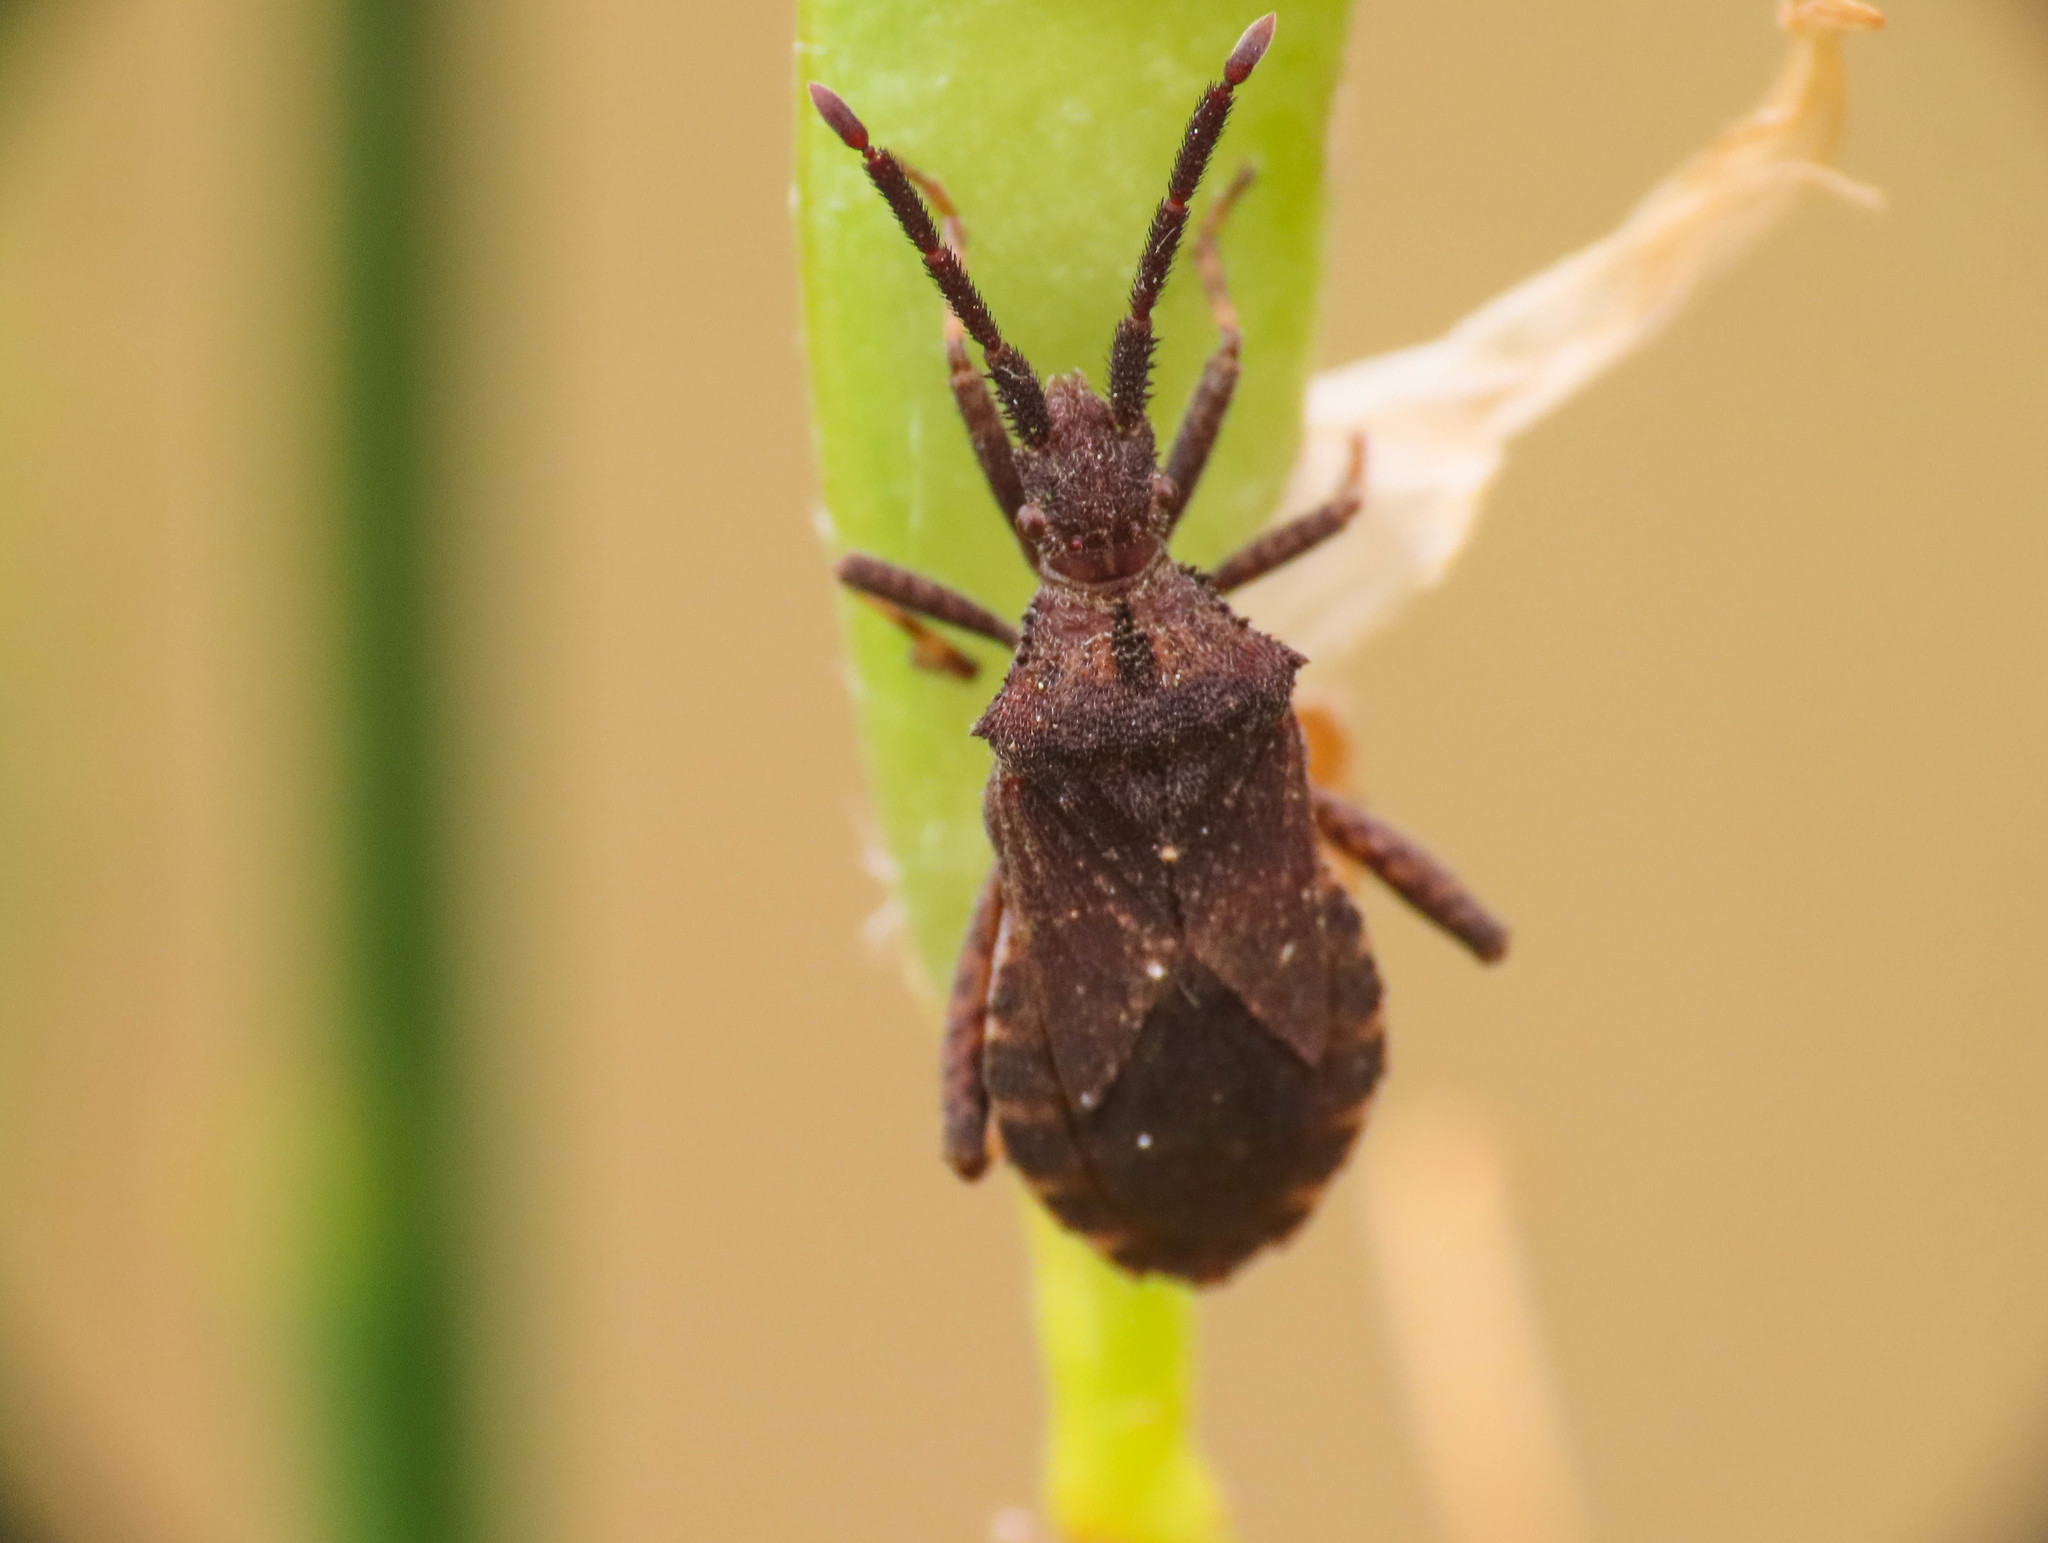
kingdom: Animalia
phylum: Arthropoda
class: Insecta
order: Hemiptera
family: Coreidae
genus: Bothrostethus
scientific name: Bothrostethus annulipes
